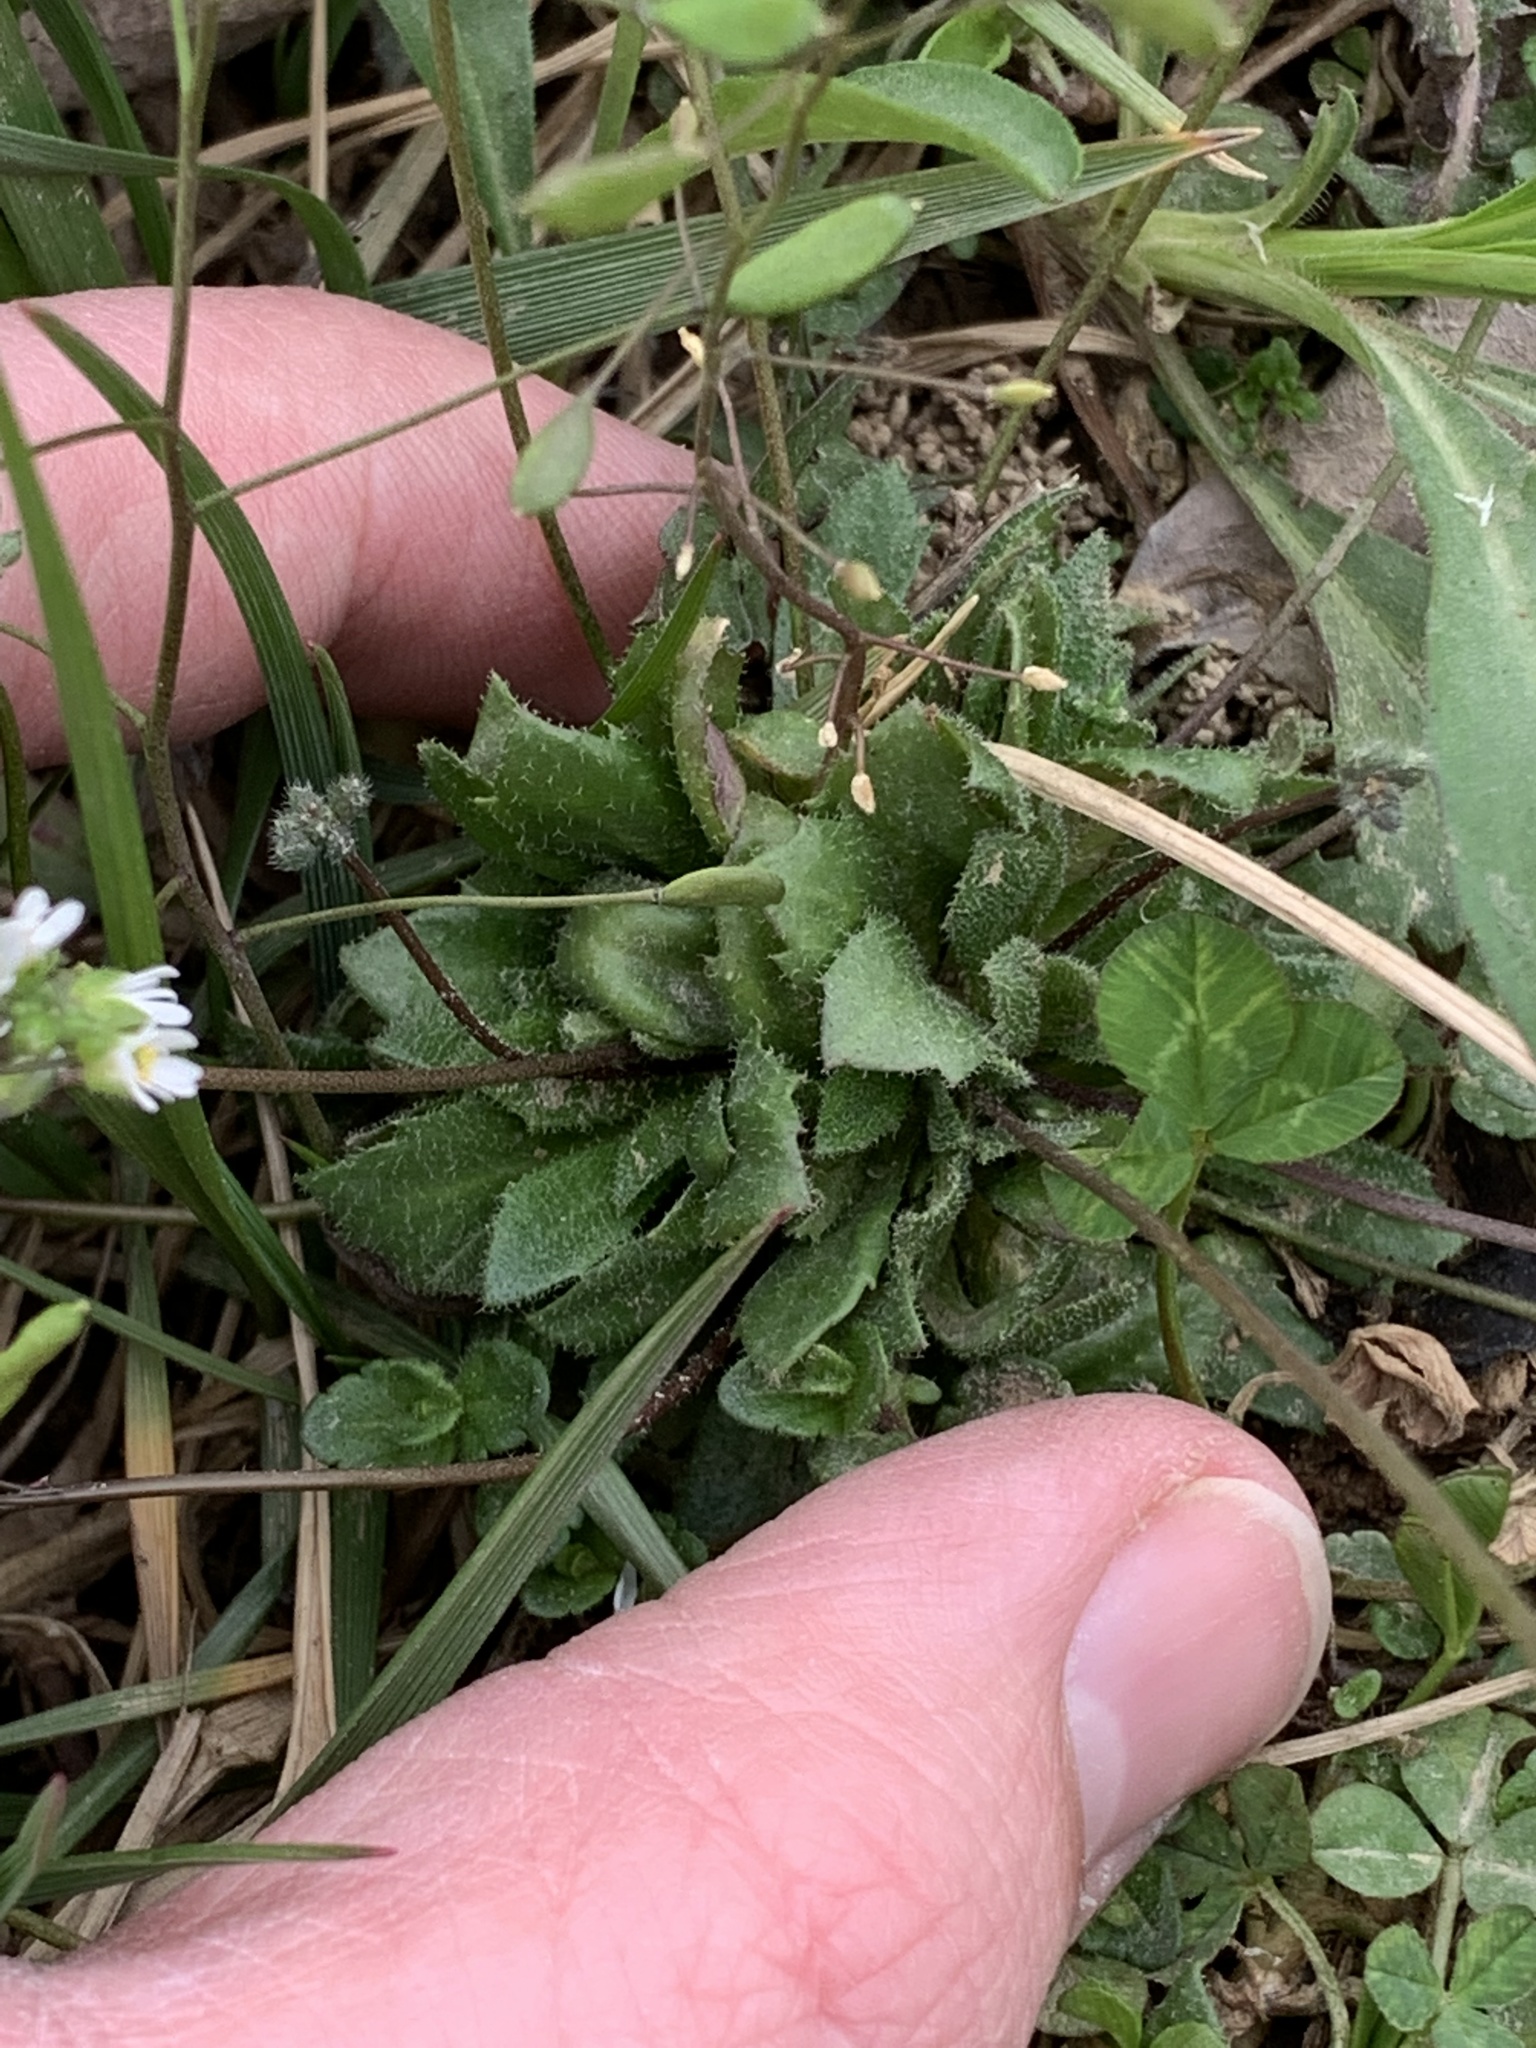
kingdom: Plantae
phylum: Tracheophyta
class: Magnoliopsida
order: Brassicales
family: Brassicaceae
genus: Draba
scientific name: Draba verna
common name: Spring draba
